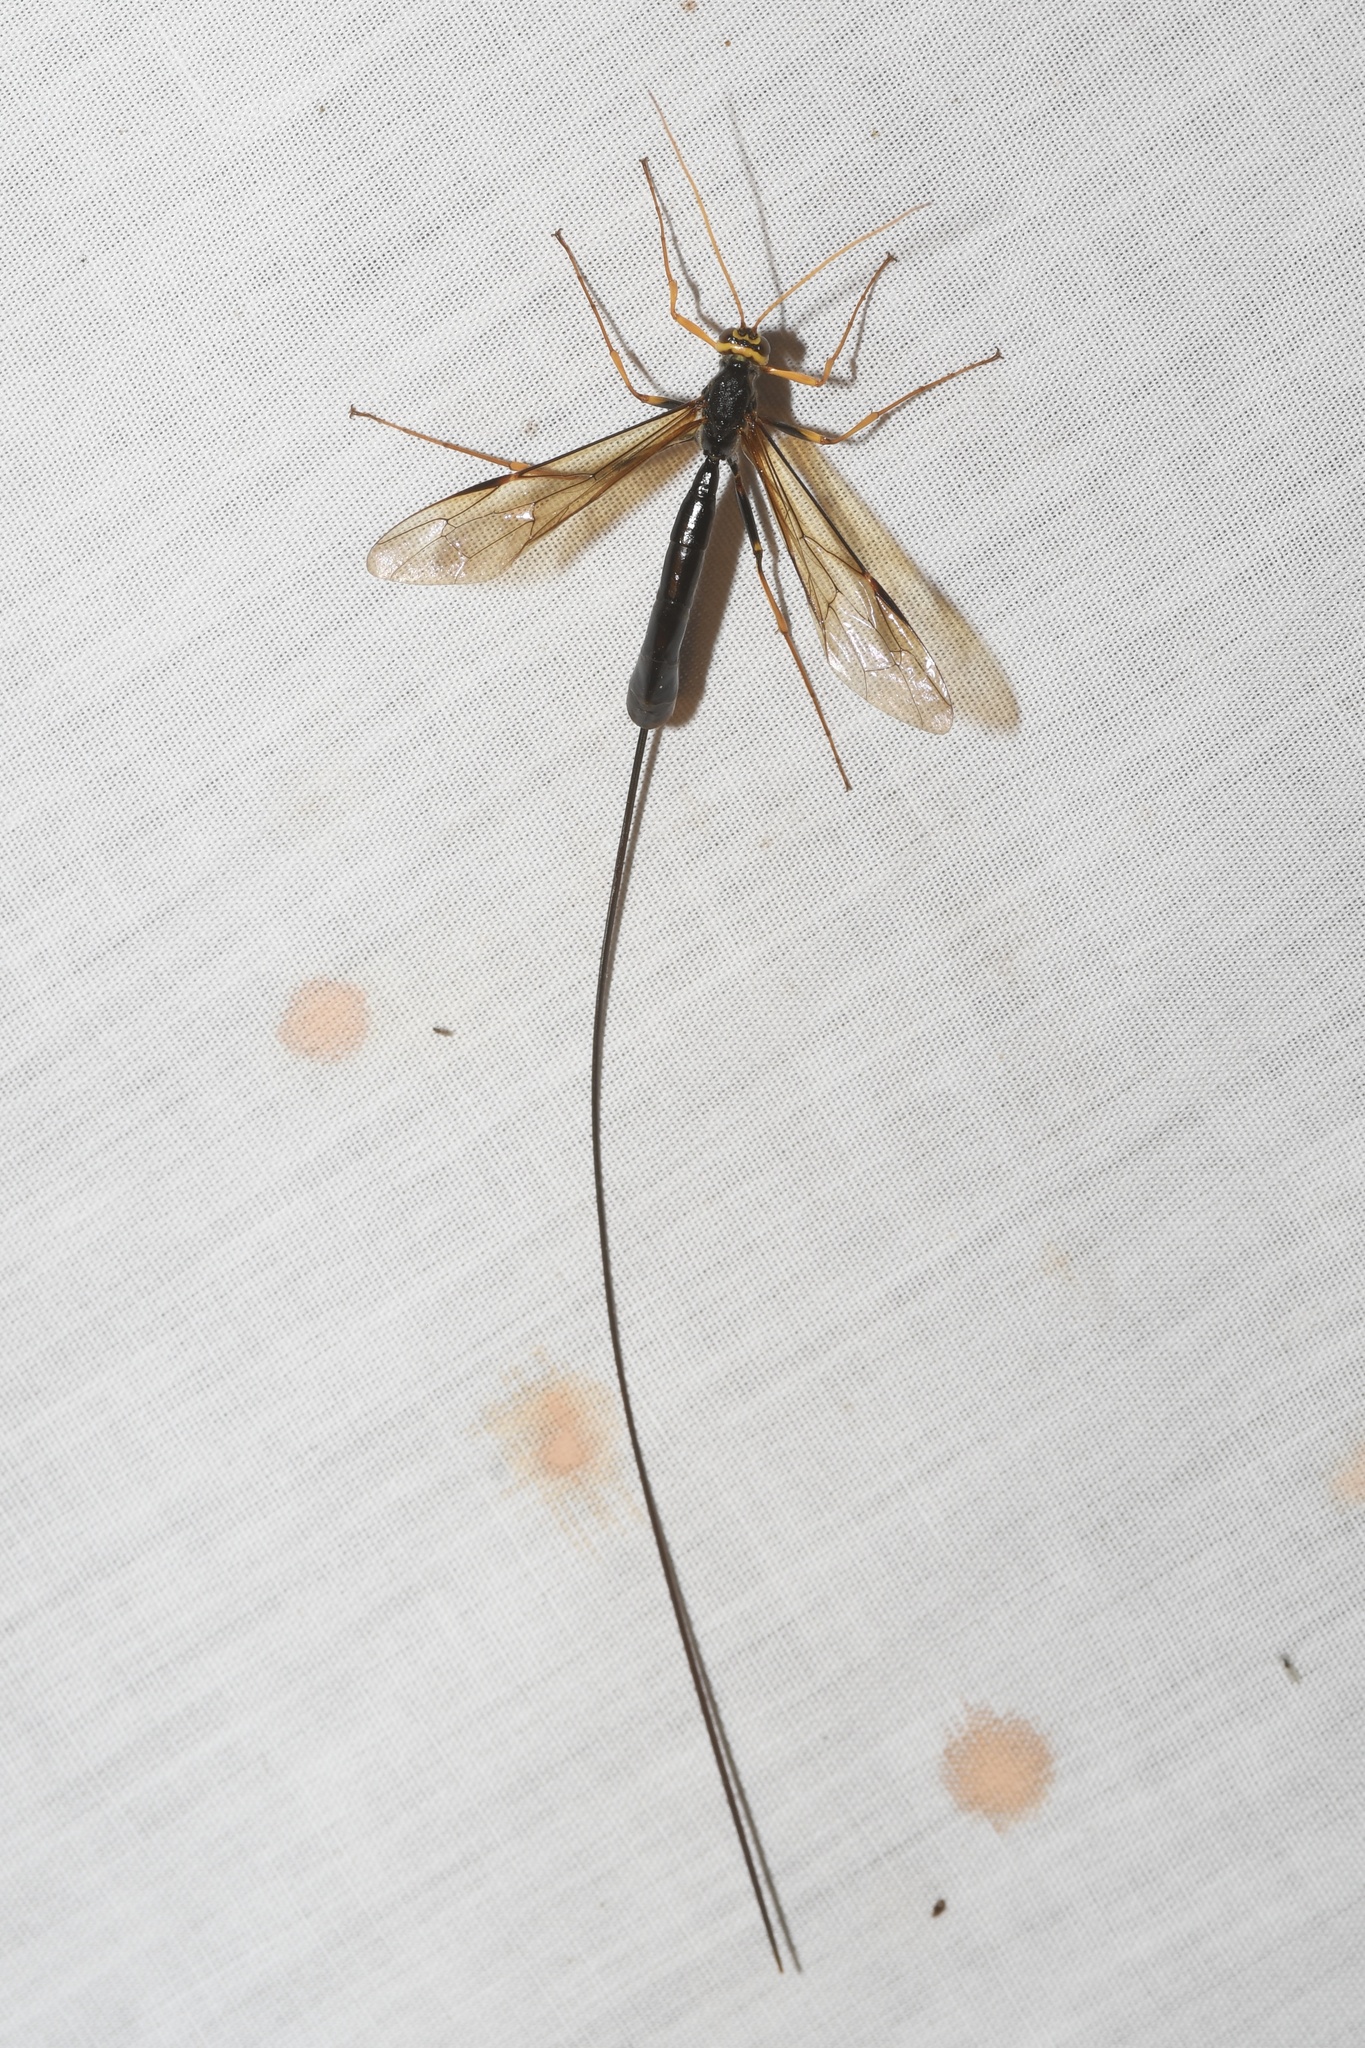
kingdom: Animalia
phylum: Arthropoda
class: Insecta
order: Hymenoptera
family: Ichneumonidae
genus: Megarhyssa
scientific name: Megarhyssa atrata
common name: Black giant ichneumonid wasp
